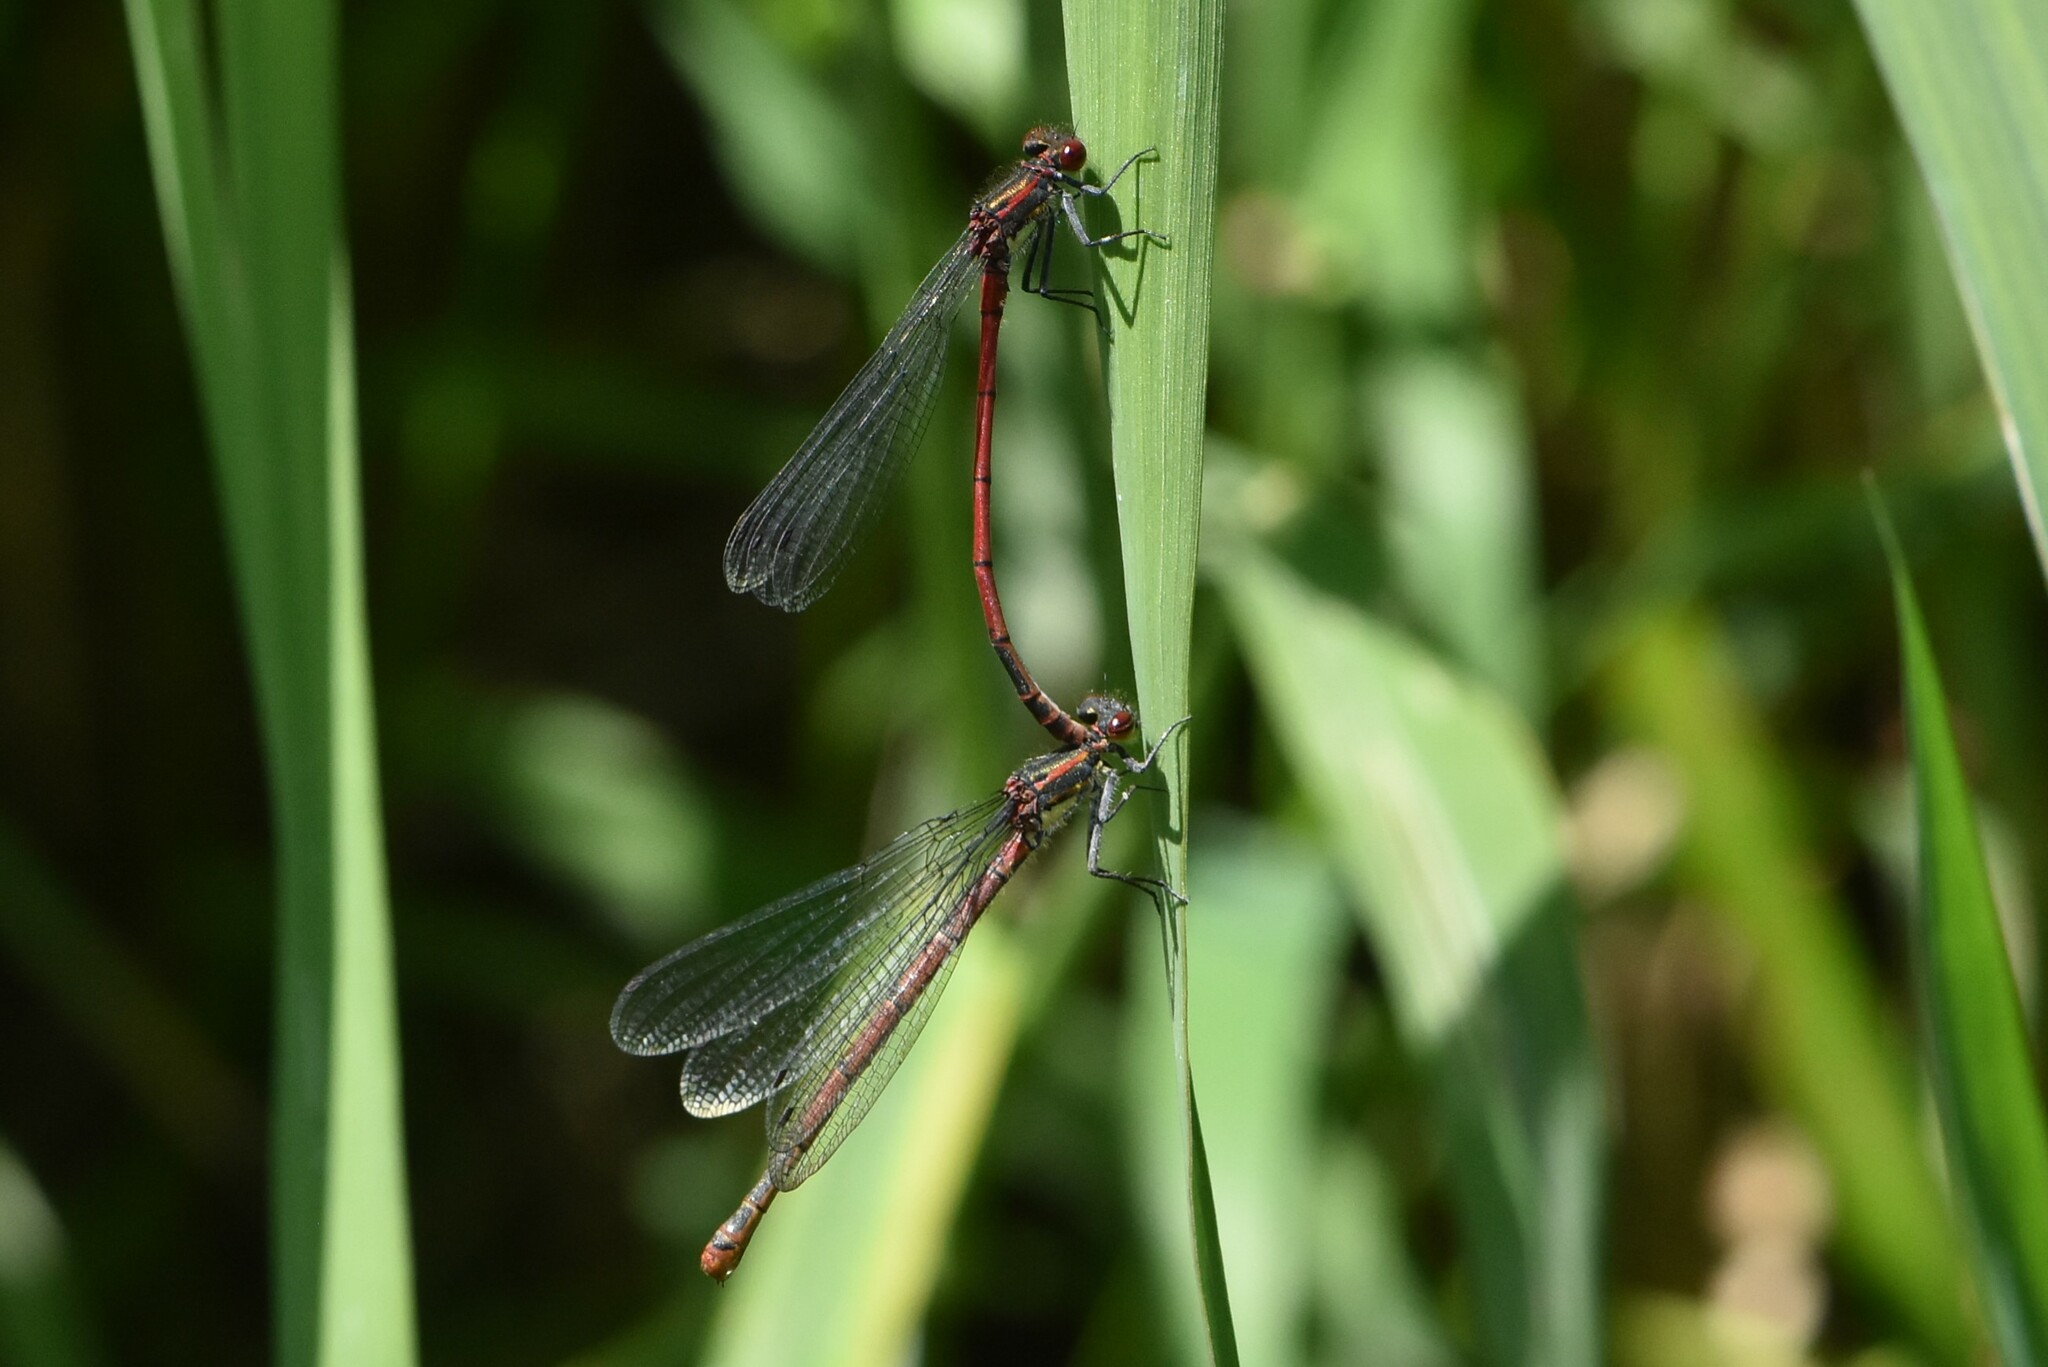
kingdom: Animalia
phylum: Arthropoda
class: Insecta
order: Odonata
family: Coenagrionidae
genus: Pyrrhosoma
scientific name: Pyrrhosoma nymphula
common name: Large red damsel
